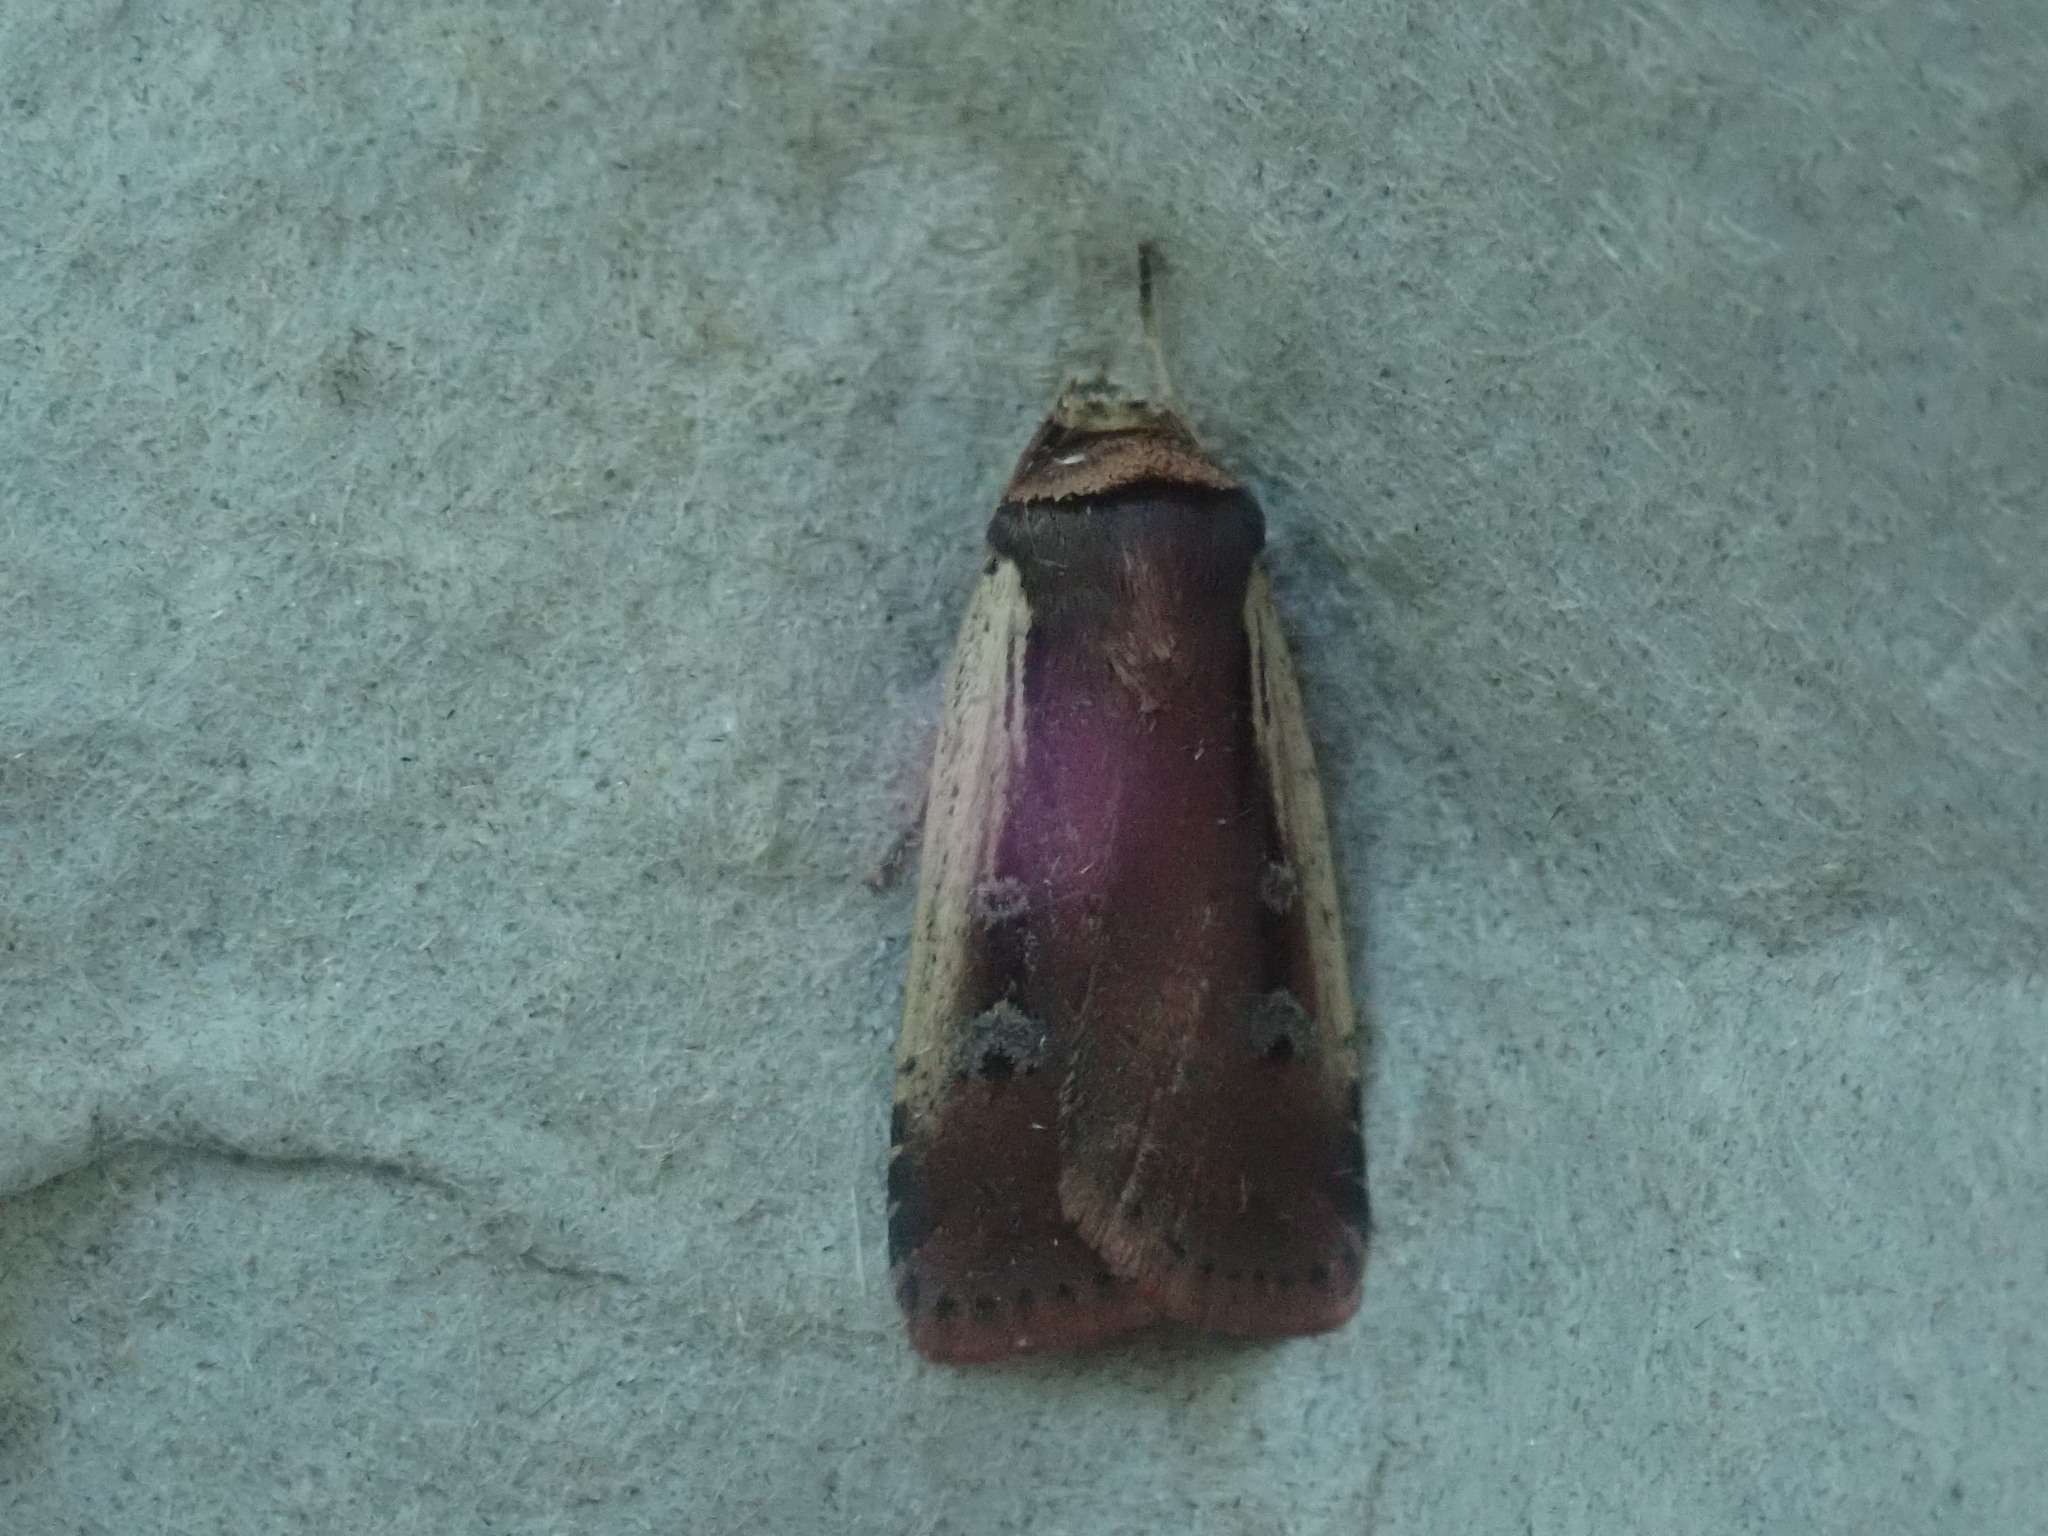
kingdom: Animalia
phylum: Arthropoda
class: Insecta
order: Lepidoptera
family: Noctuidae
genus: Ochropleura
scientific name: Ochropleura implecta
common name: Flame-shouldered dart
